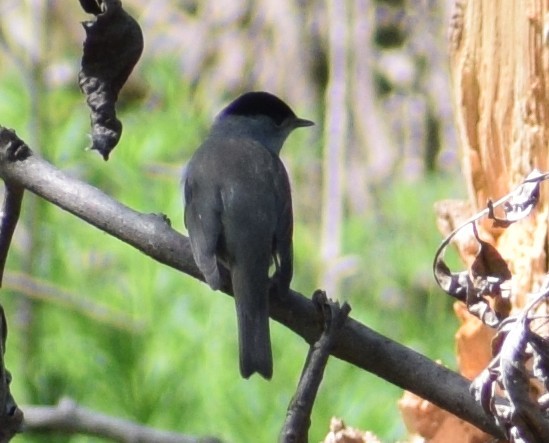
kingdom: Animalia
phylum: Chordata
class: Aves
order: Passeriformes
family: Sylviidae
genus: Sylvia
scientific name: Sylvia atricapilla
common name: Eurasian blackcap
